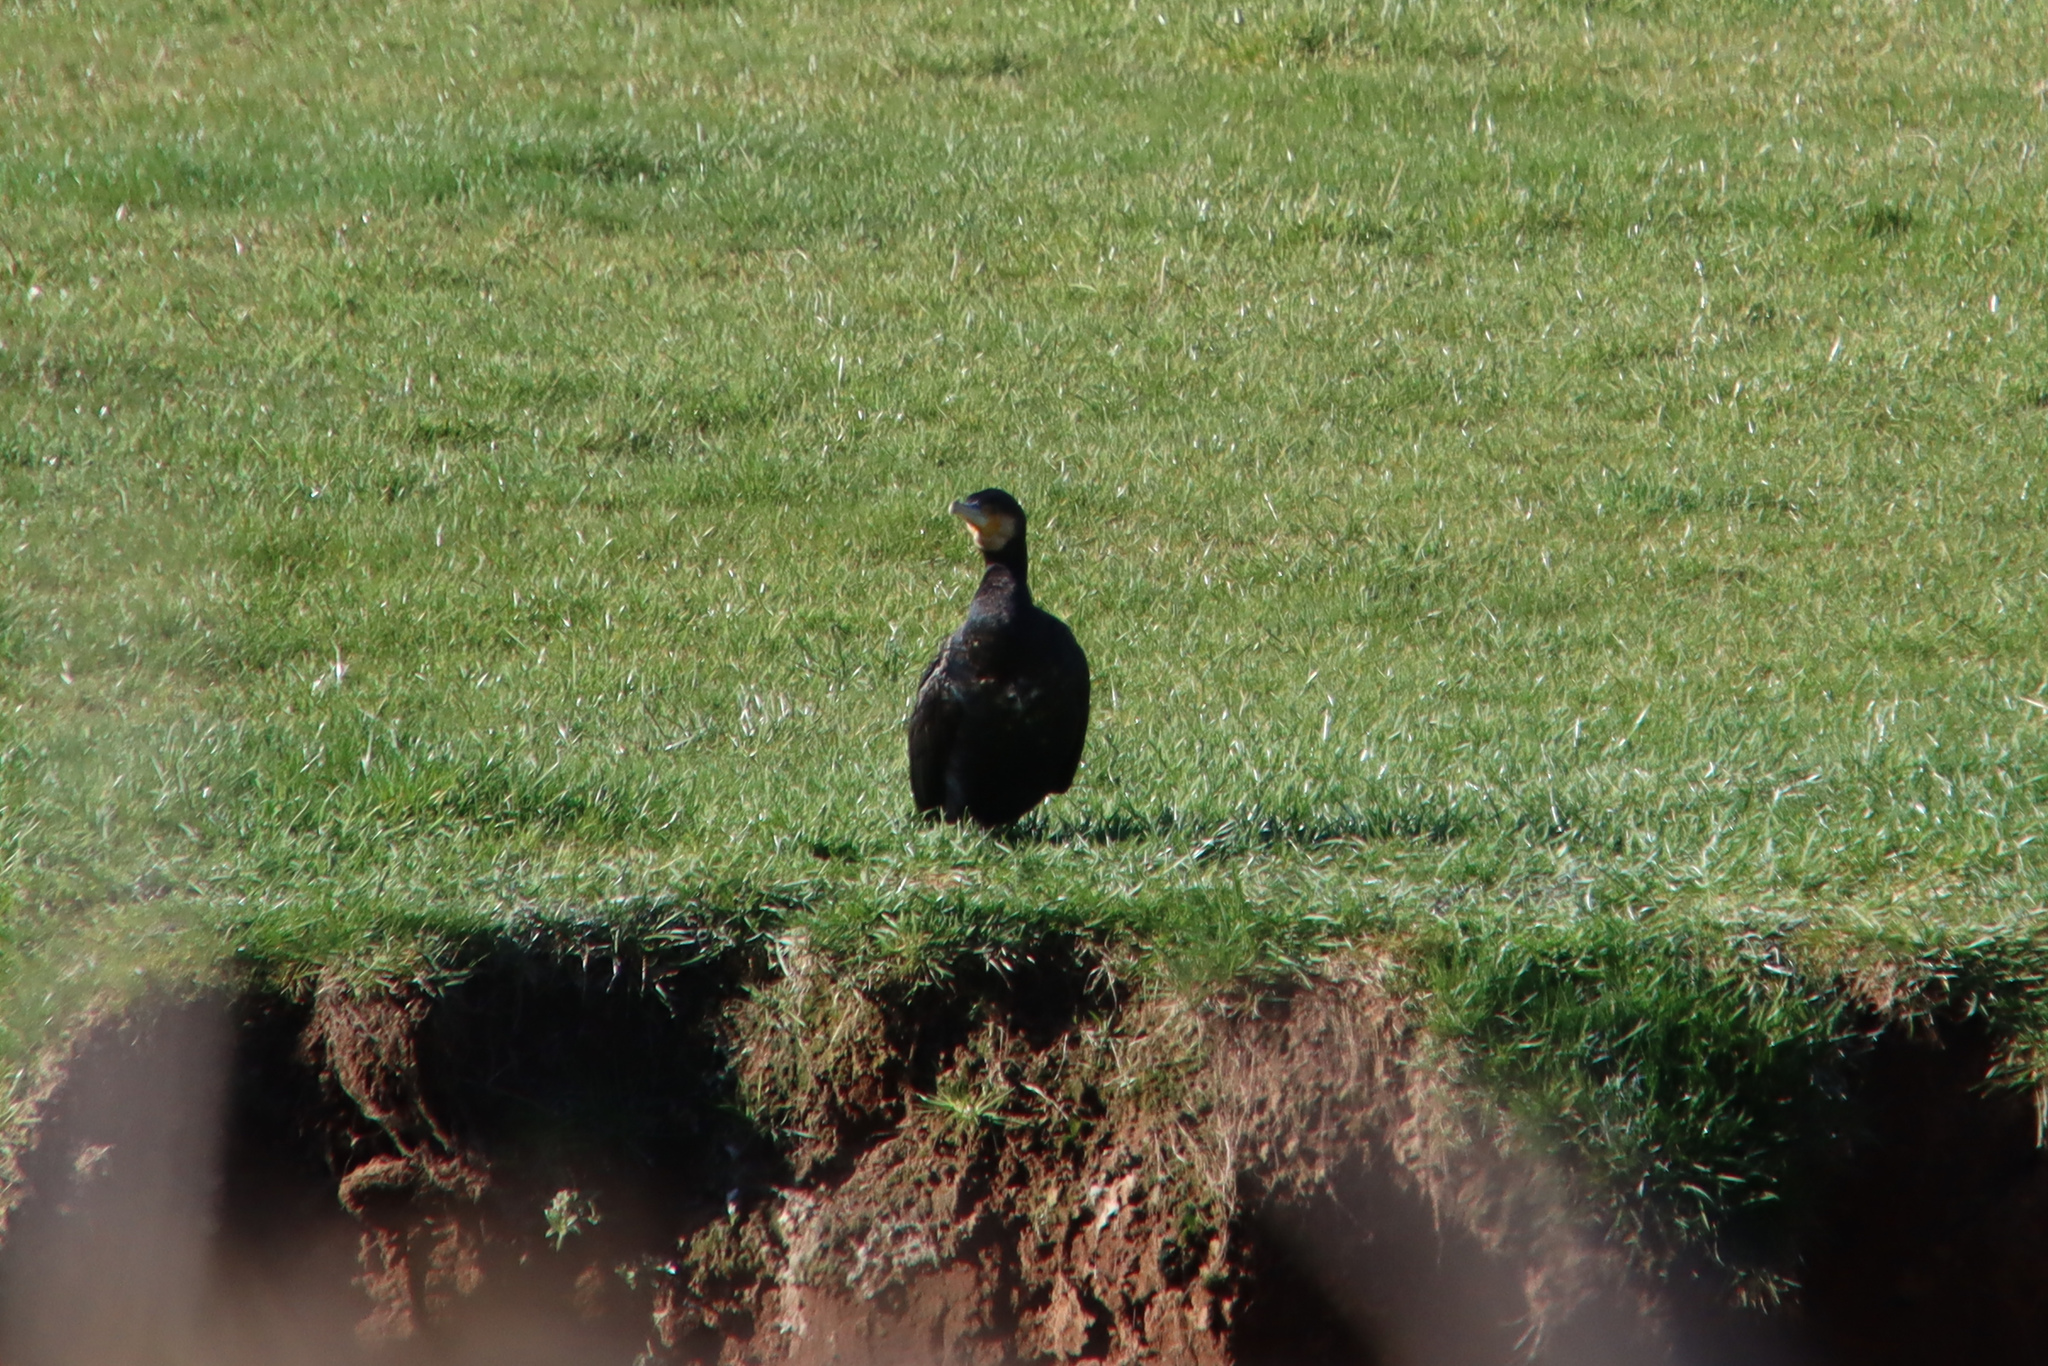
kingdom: Animalia
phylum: Chordata
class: Aves
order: Suliformes
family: Phalacrocoracidae
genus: Phalacrocorax
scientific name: Phalacrocorax carbo
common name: Great cormorant
